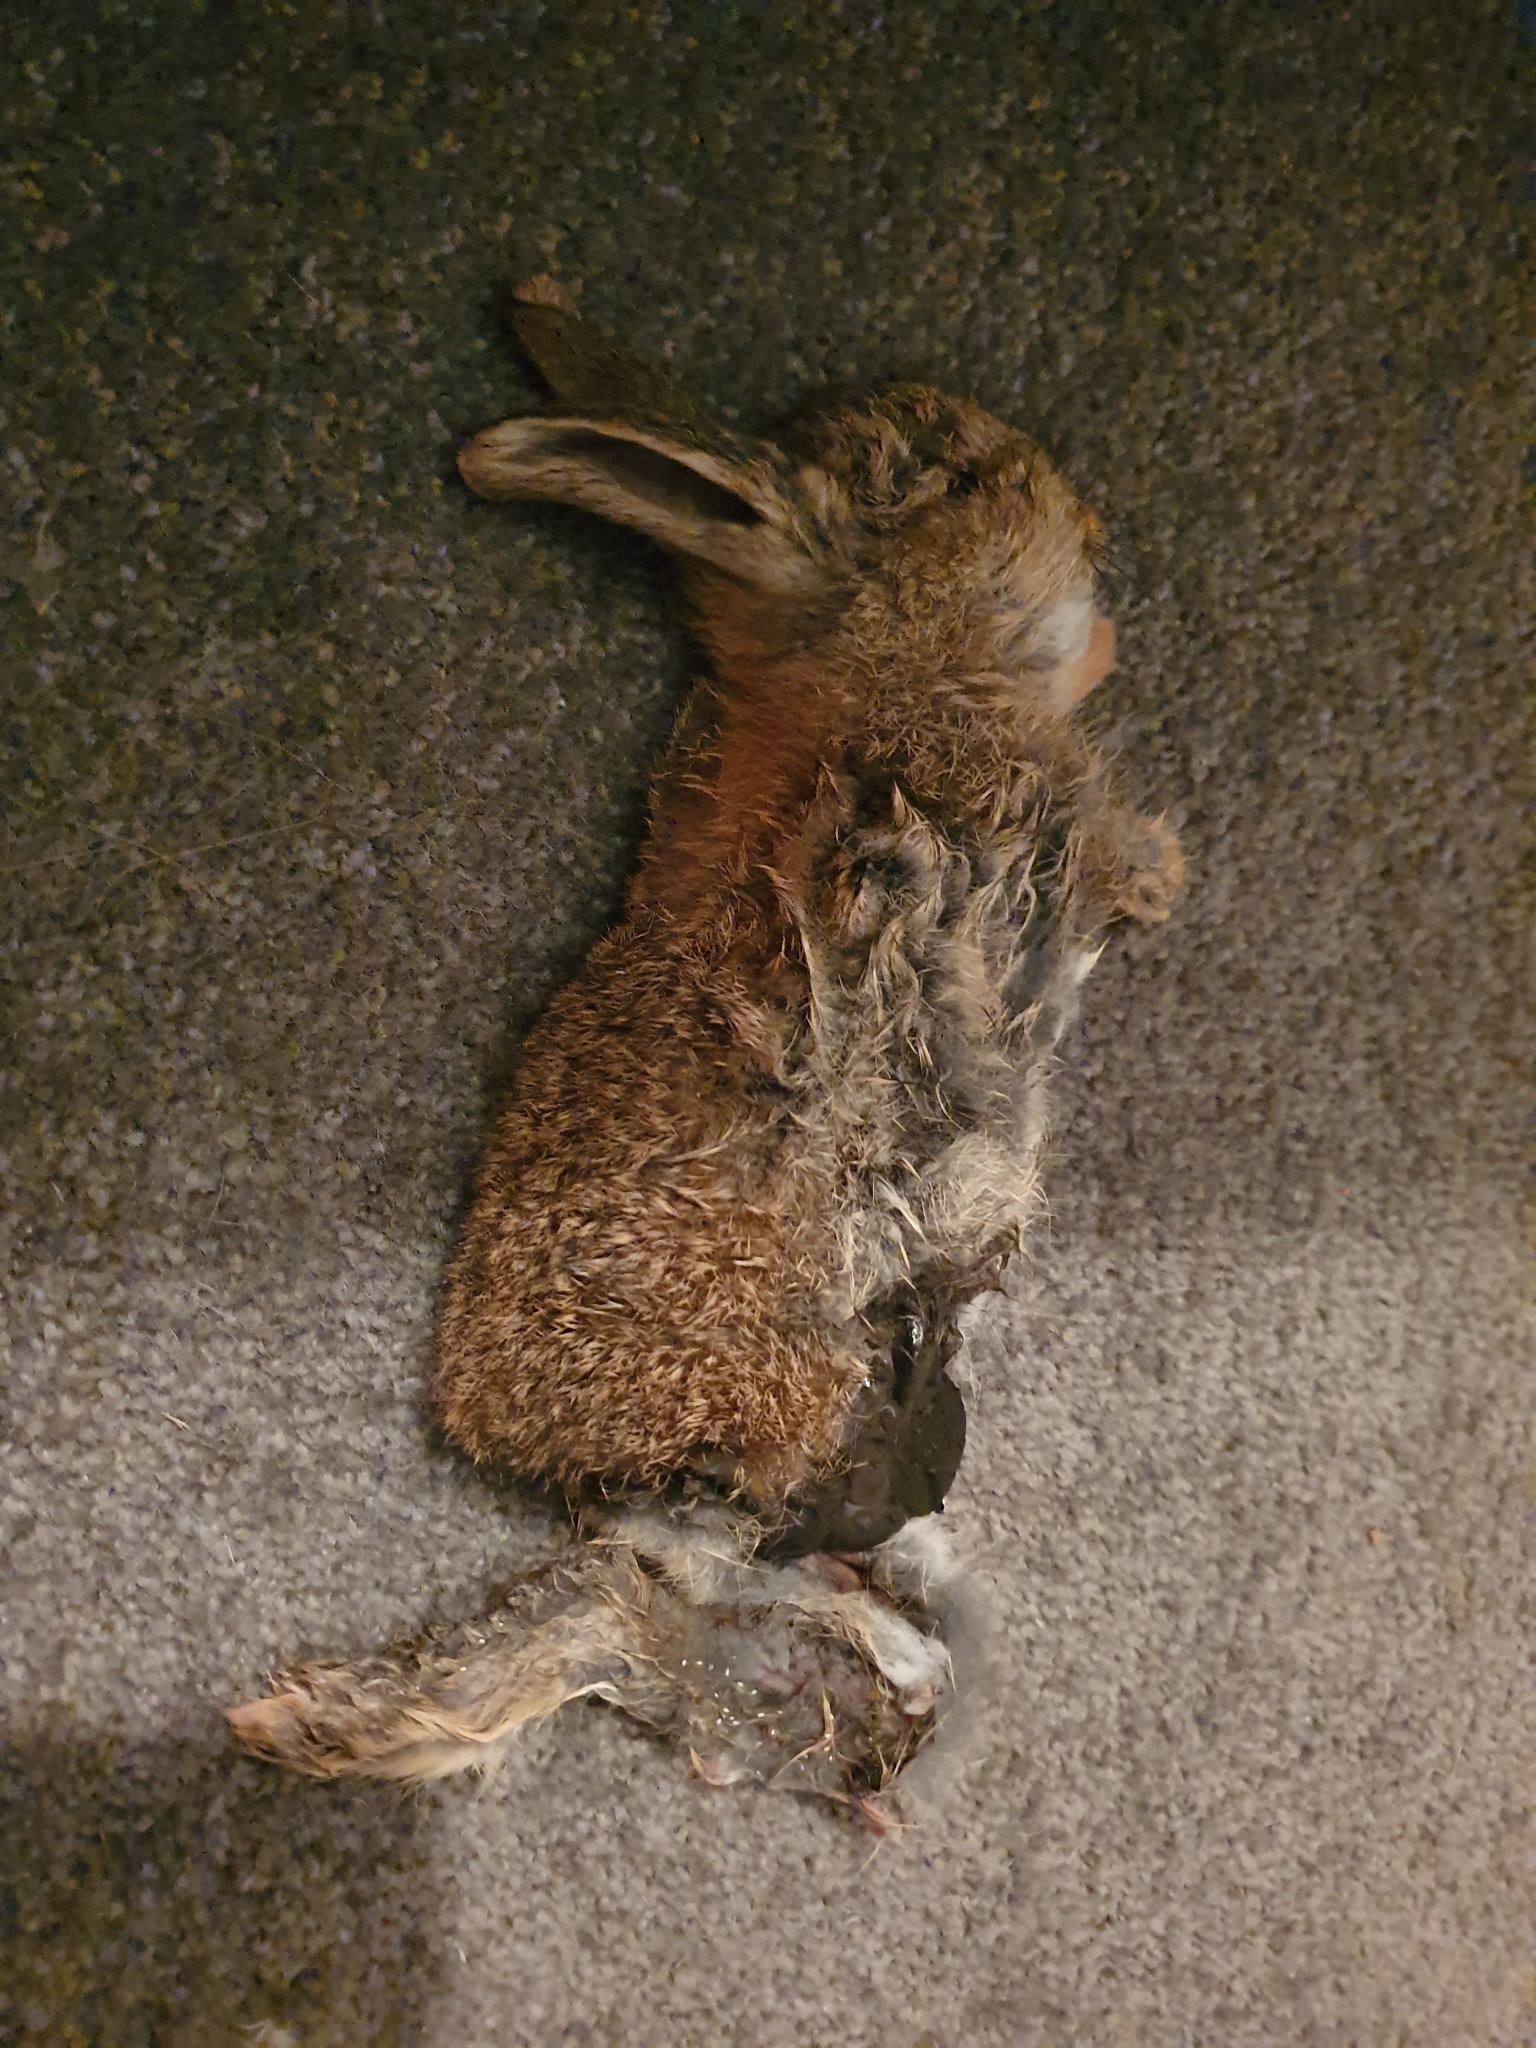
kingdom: Animalia
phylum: Chordata
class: Mammalia
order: Lagomorpha
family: Leporidae
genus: Oryctolagus
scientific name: Oryctolagus cuniculus
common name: European rabbit
